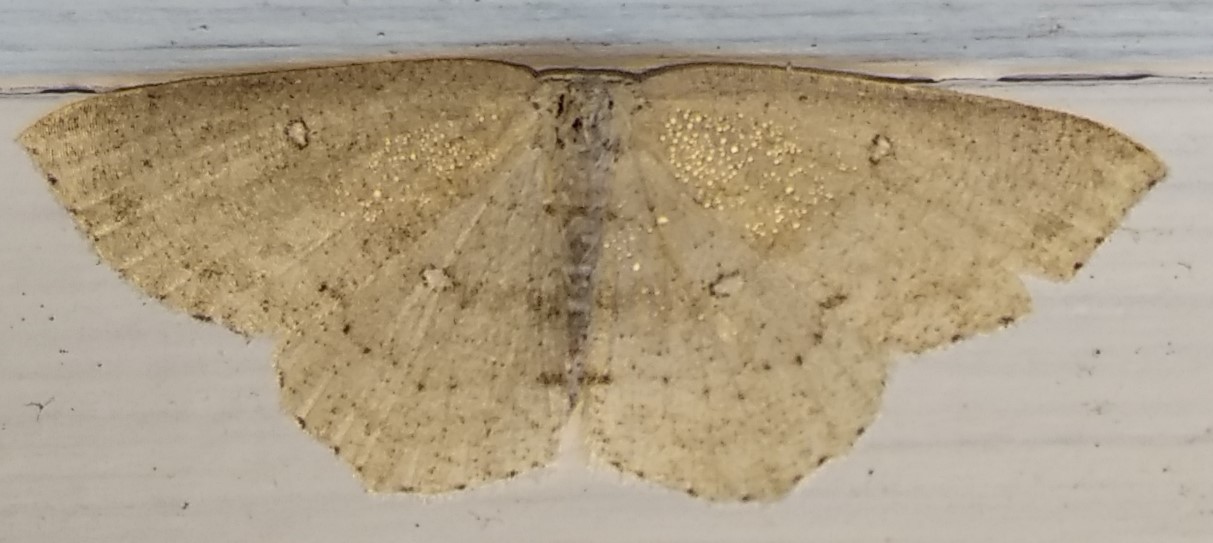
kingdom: Animalia
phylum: Arthropoda
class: Insecta
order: Lepidoptera
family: Geometridae
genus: Cyclophora
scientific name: Cyclophora pendulinaria
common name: Sweet fern geometer
